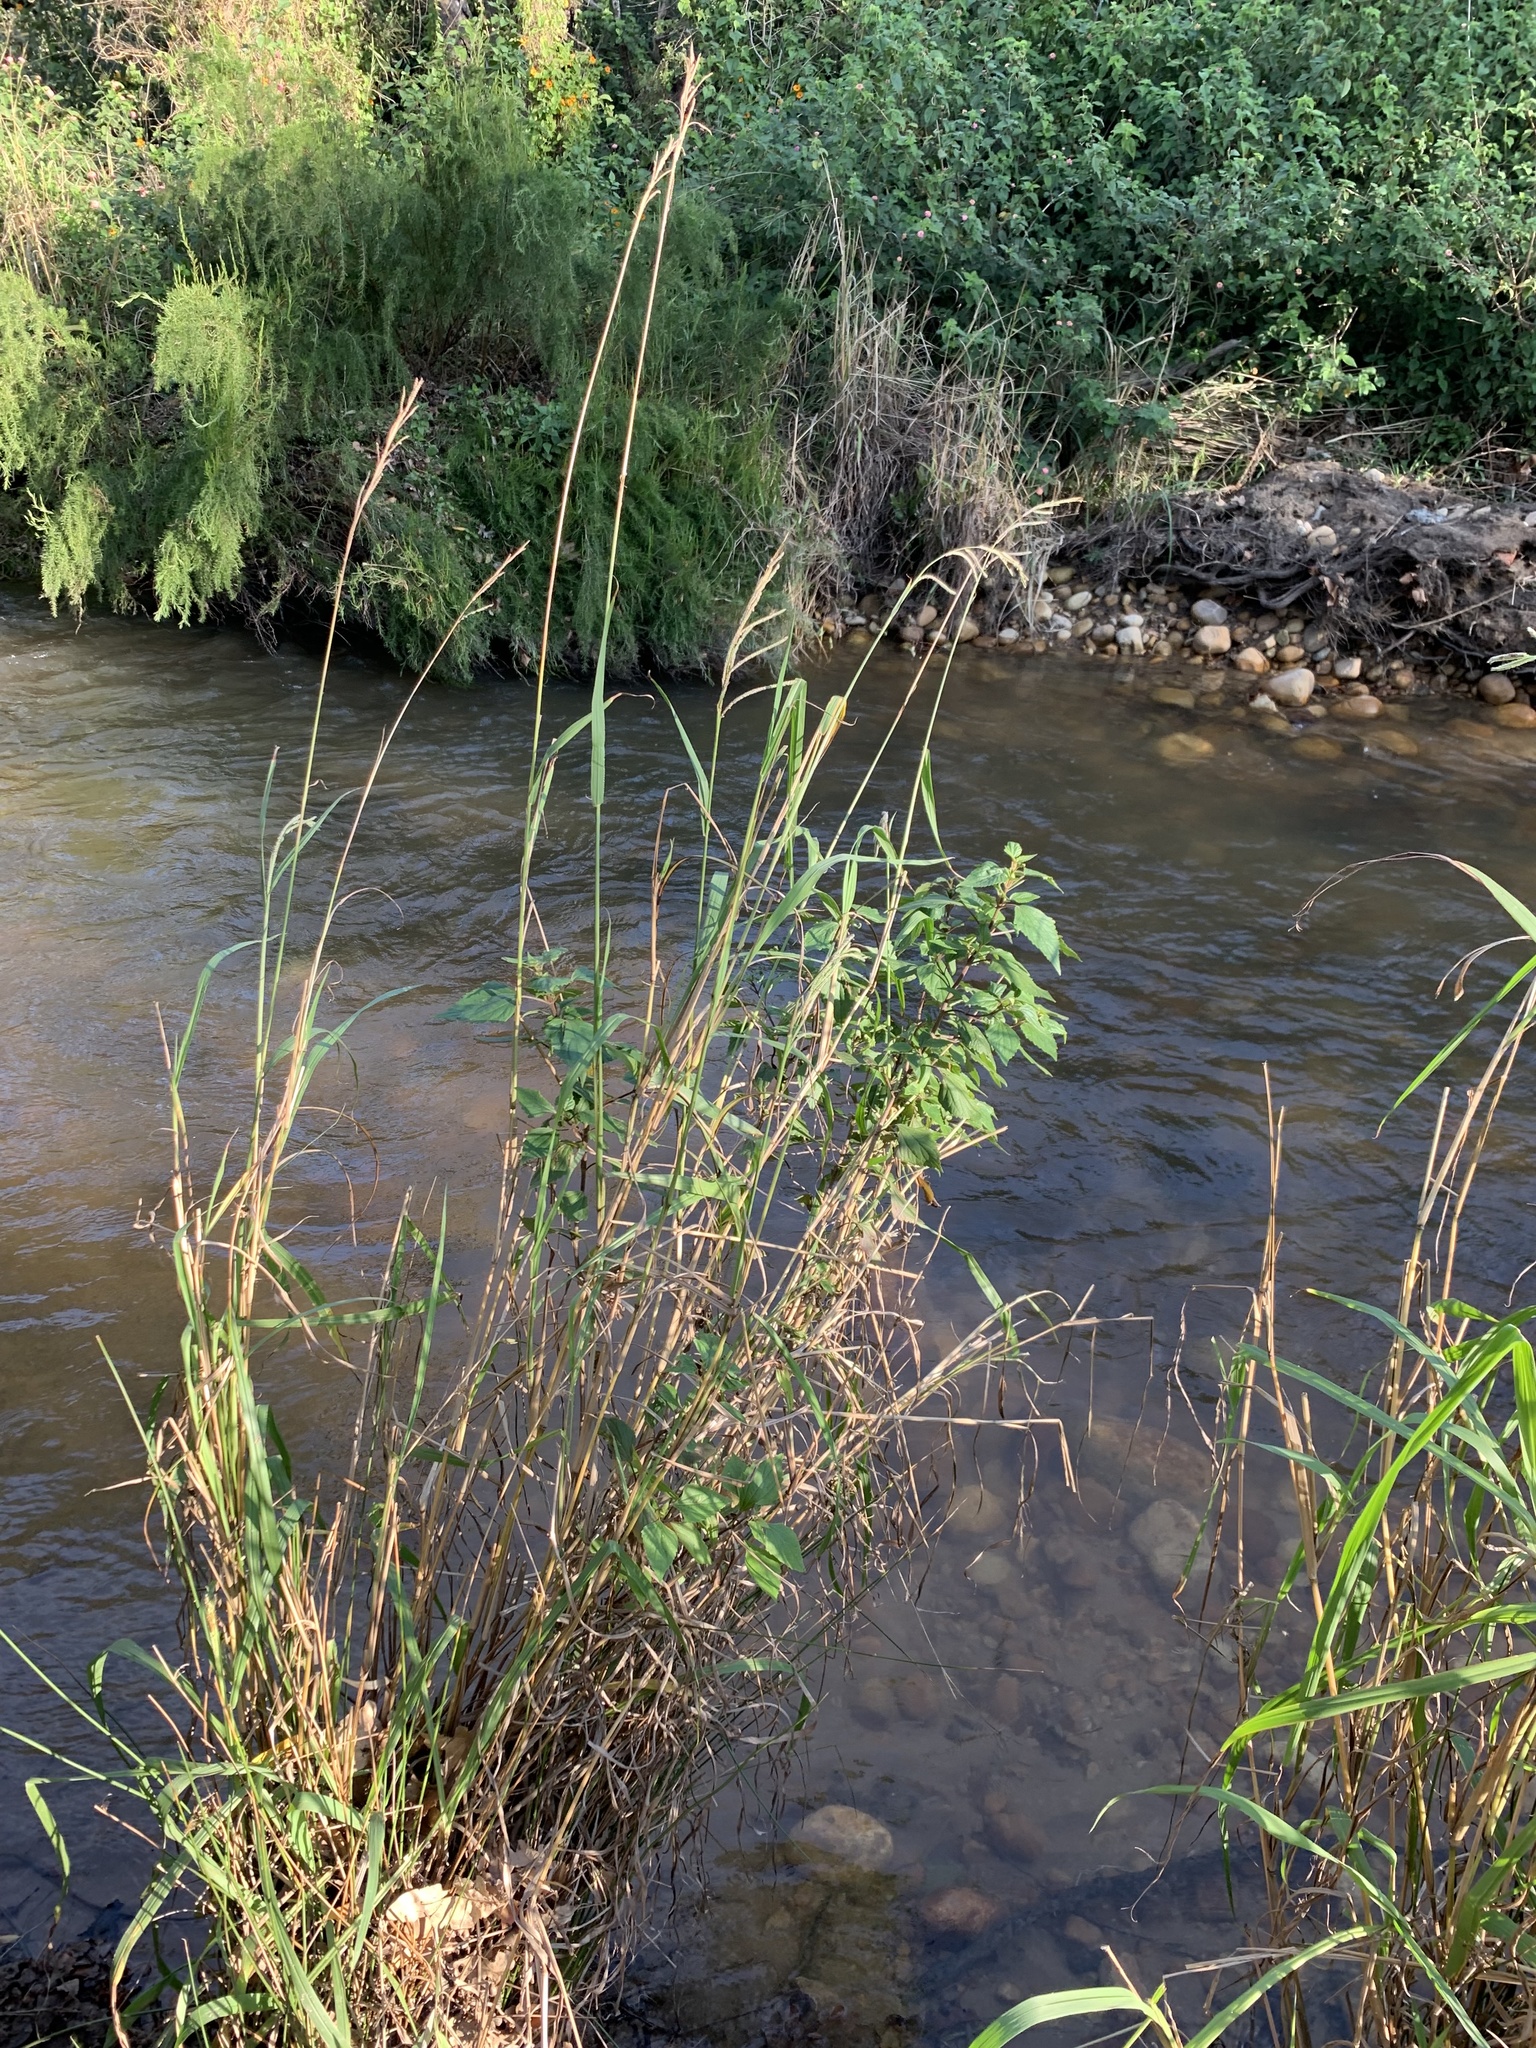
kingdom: Plantae
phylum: Tracheophyta
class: Magnoliopsida
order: Asterales
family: Asteraceae
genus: Ageratina
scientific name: Ageratina adenophora
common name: Sticky snakeroot
